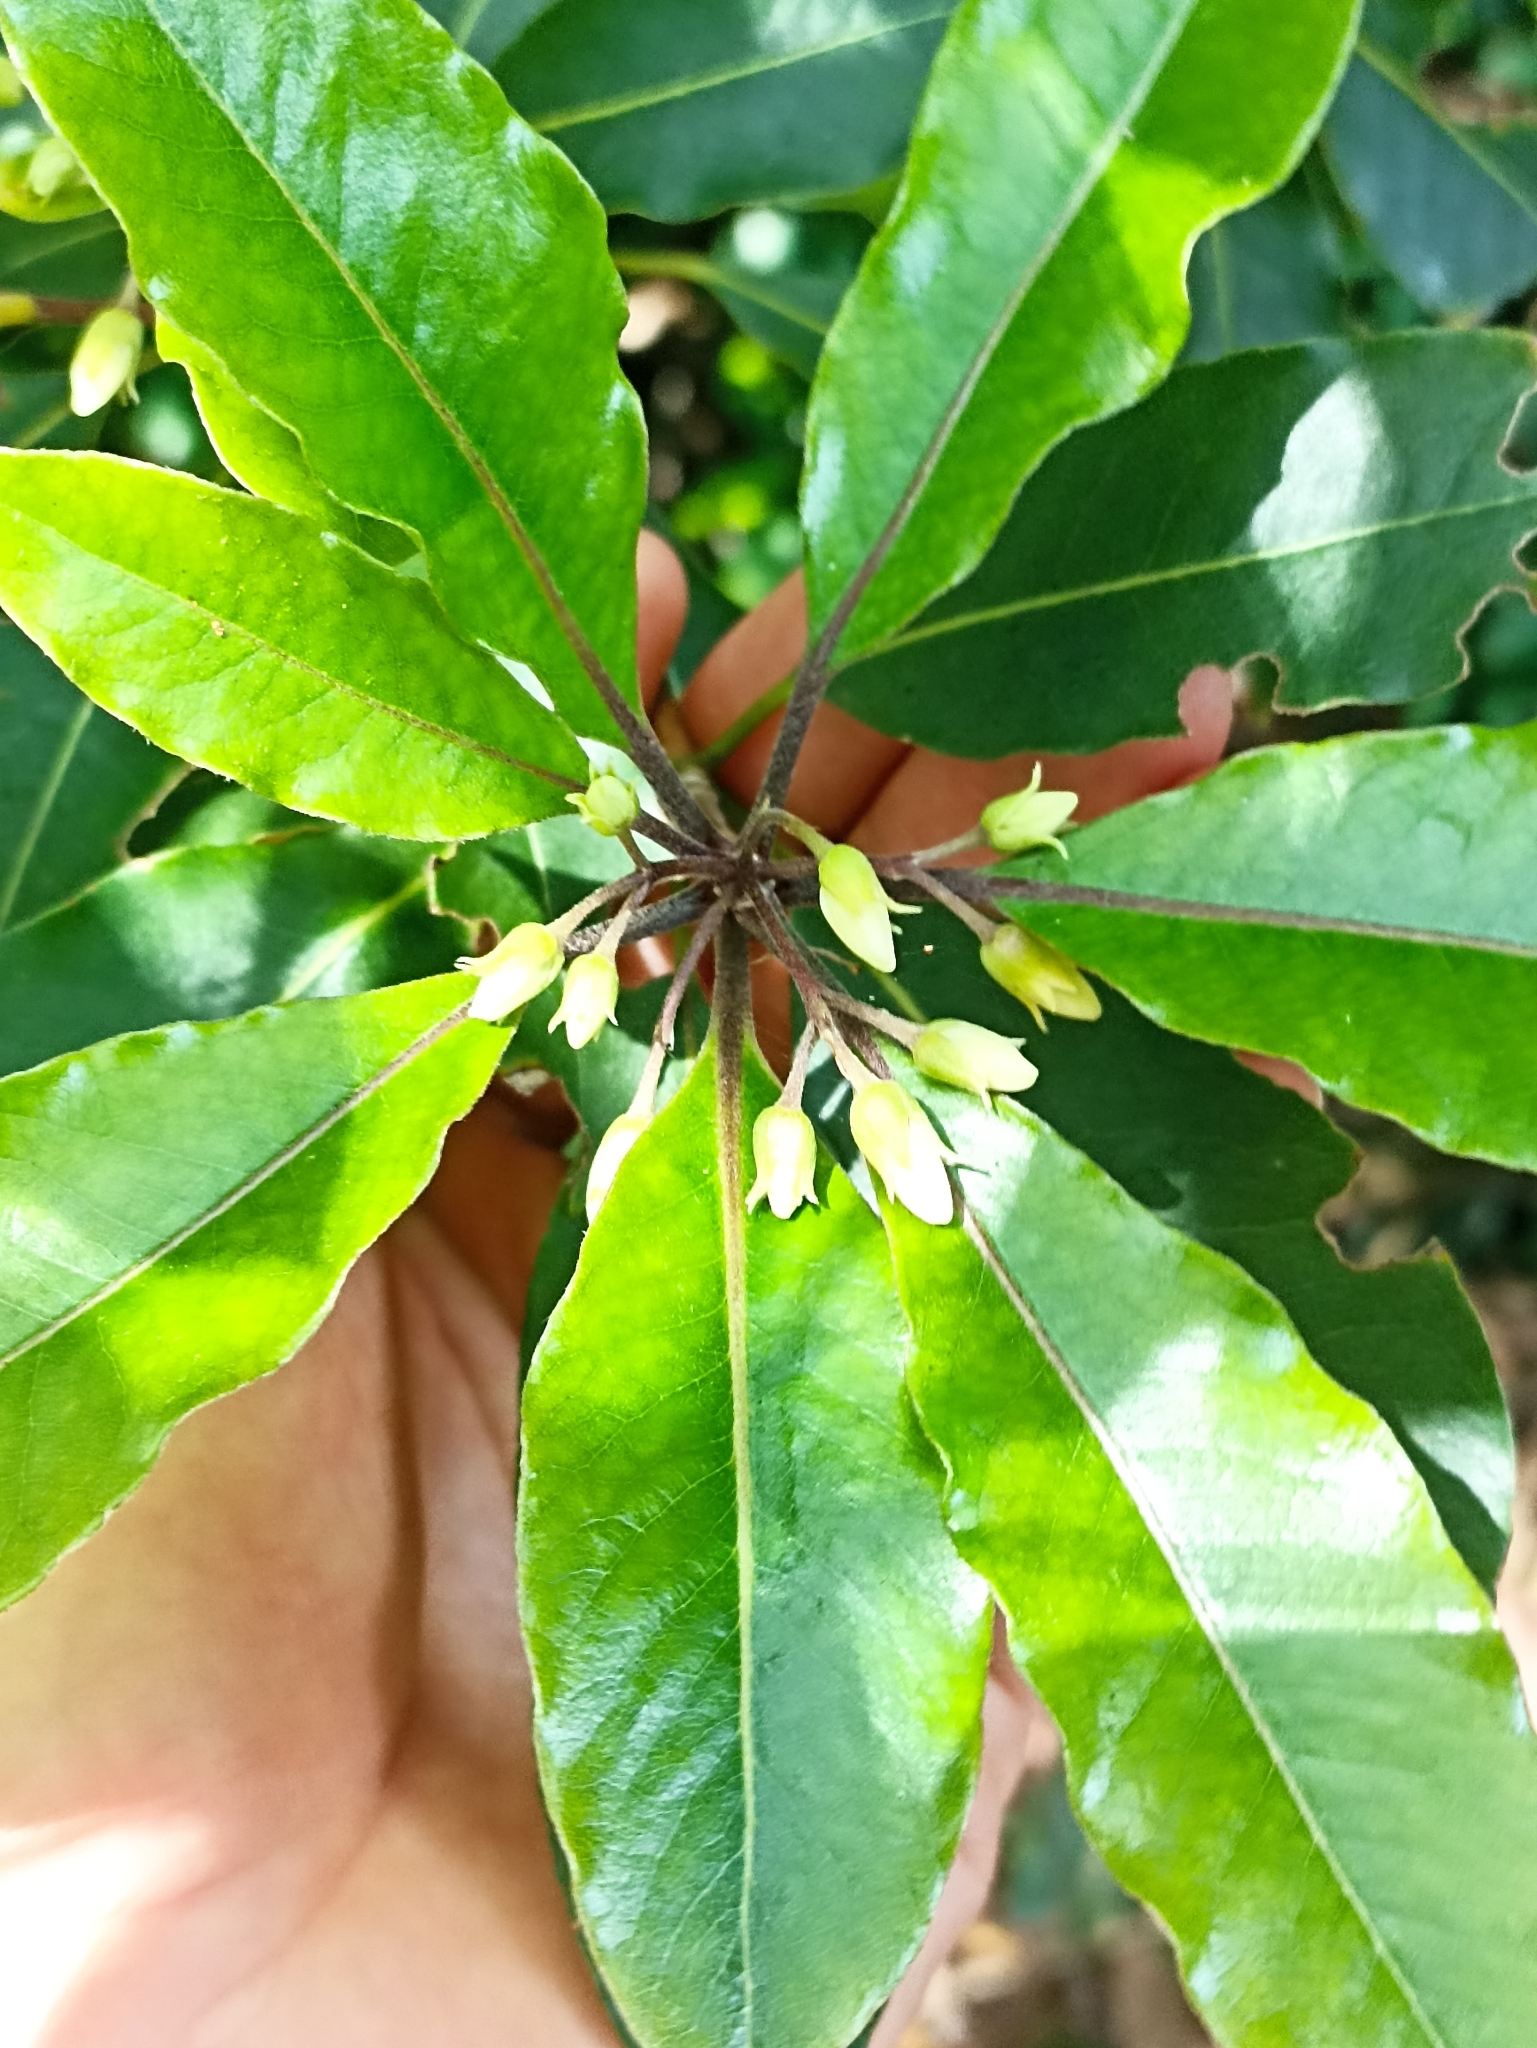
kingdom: Plantae
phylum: Tracheophyta
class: Magnoliopsida
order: Apiales
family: Pittosporaceae
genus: Pittosporum
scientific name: Pittosporum undulatum
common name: Australian cheesewood
